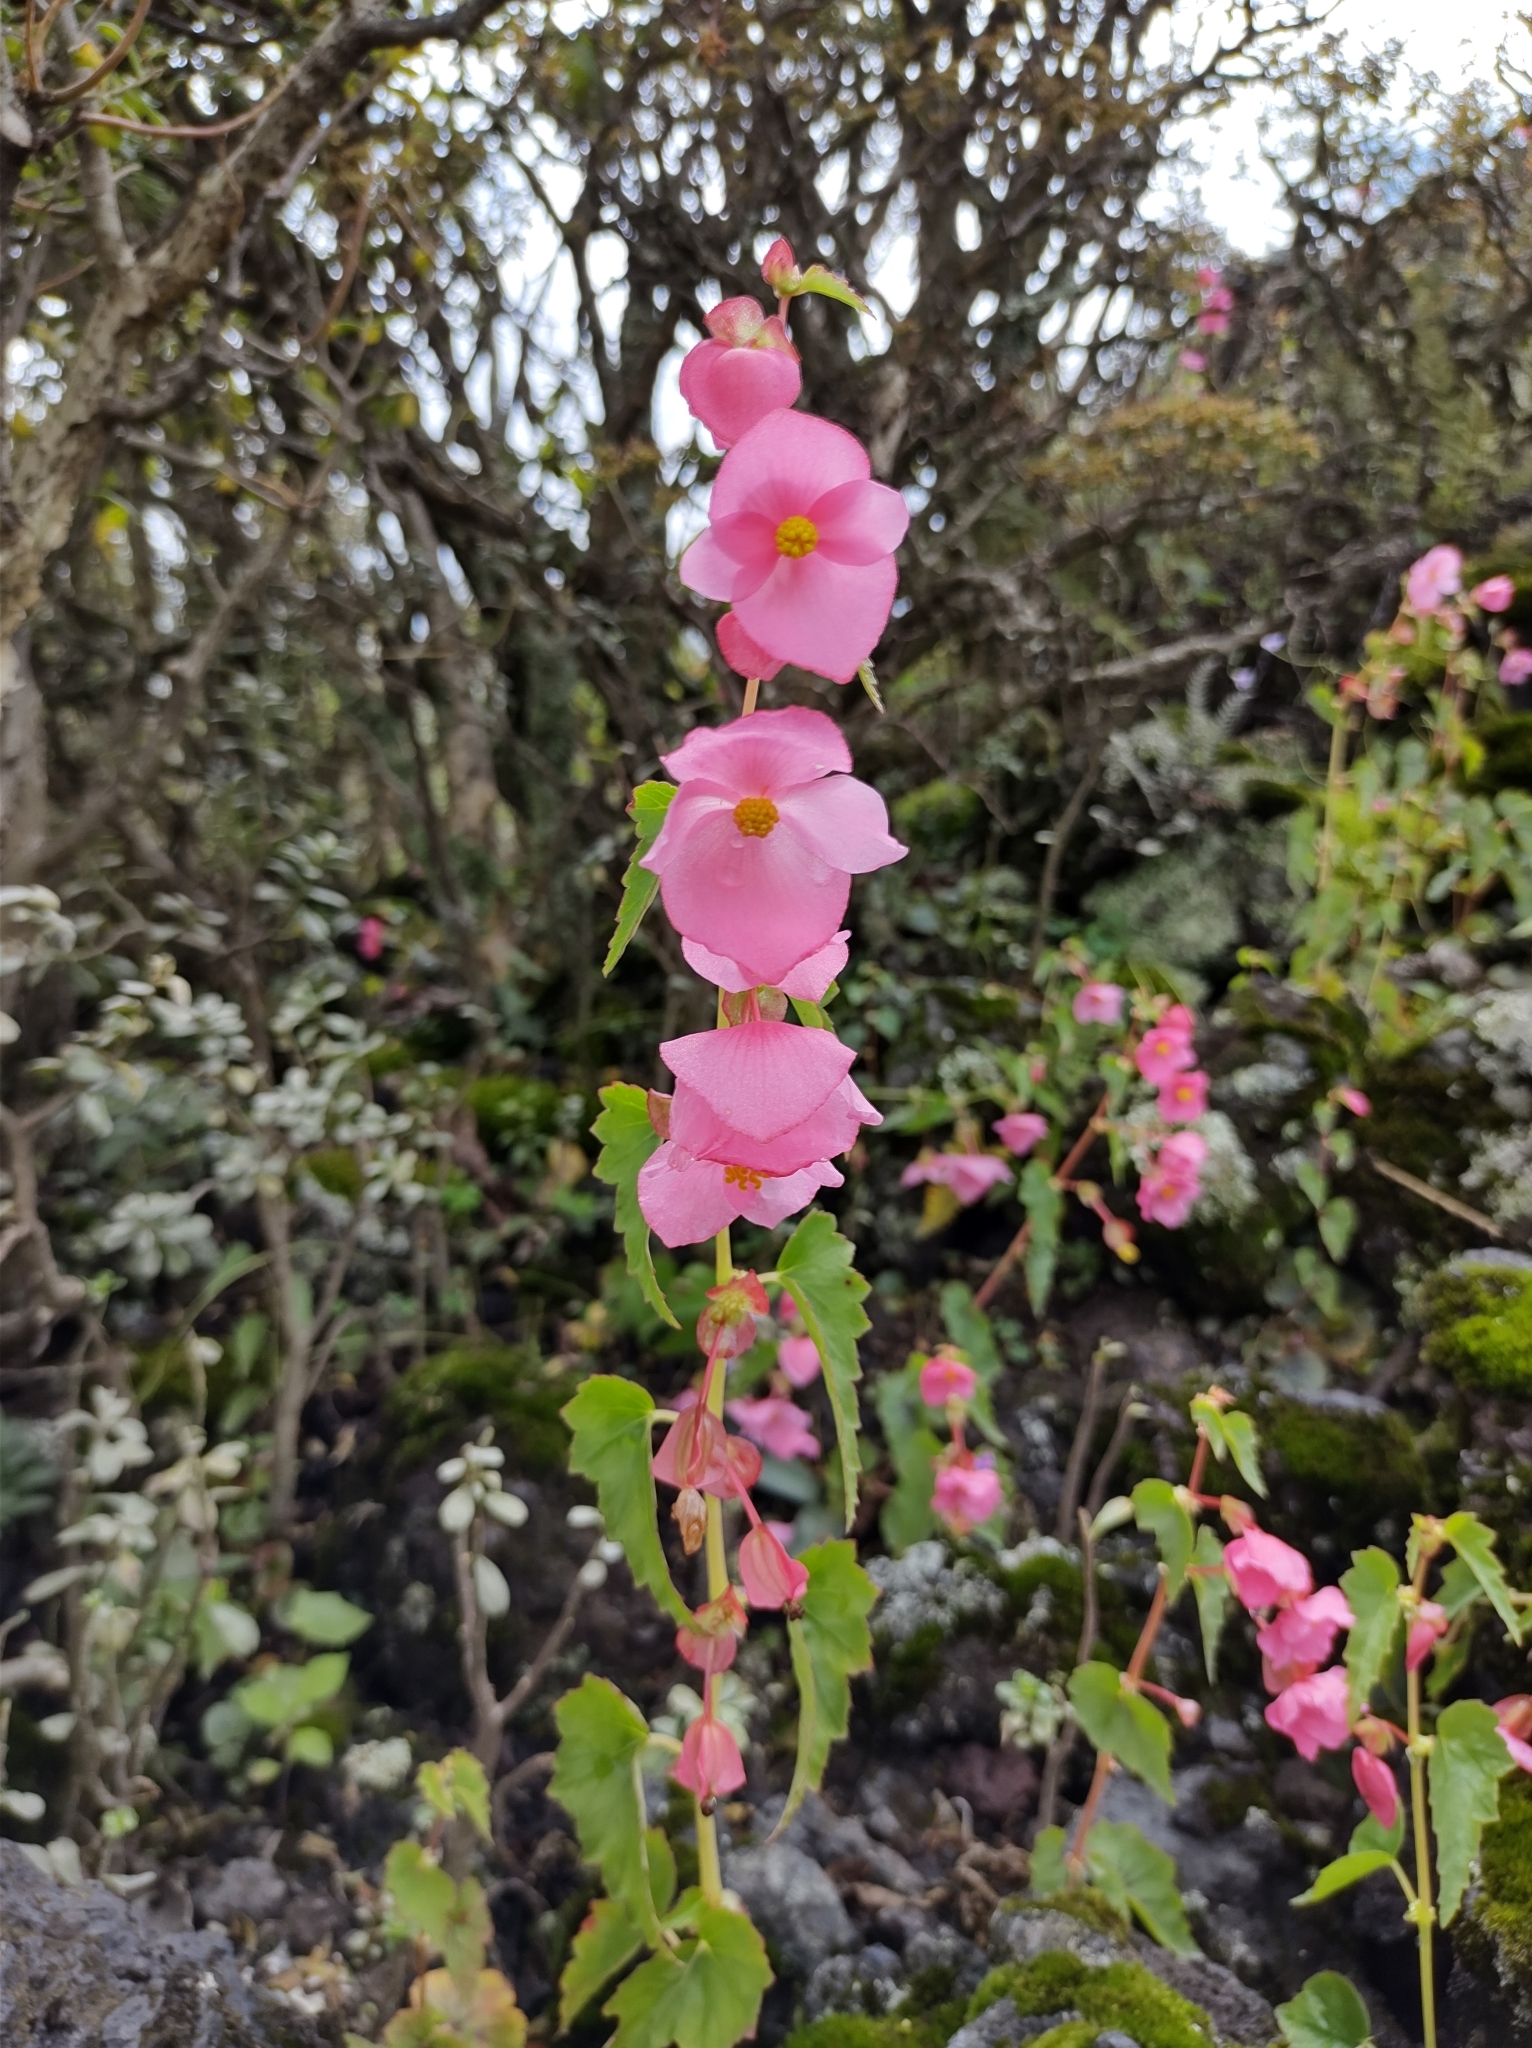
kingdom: Plantae
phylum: Tracheophyta
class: Magnoliopsida
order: Cucurbitales
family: Begoniaceae
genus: Begonia
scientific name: Begonia gracilis
